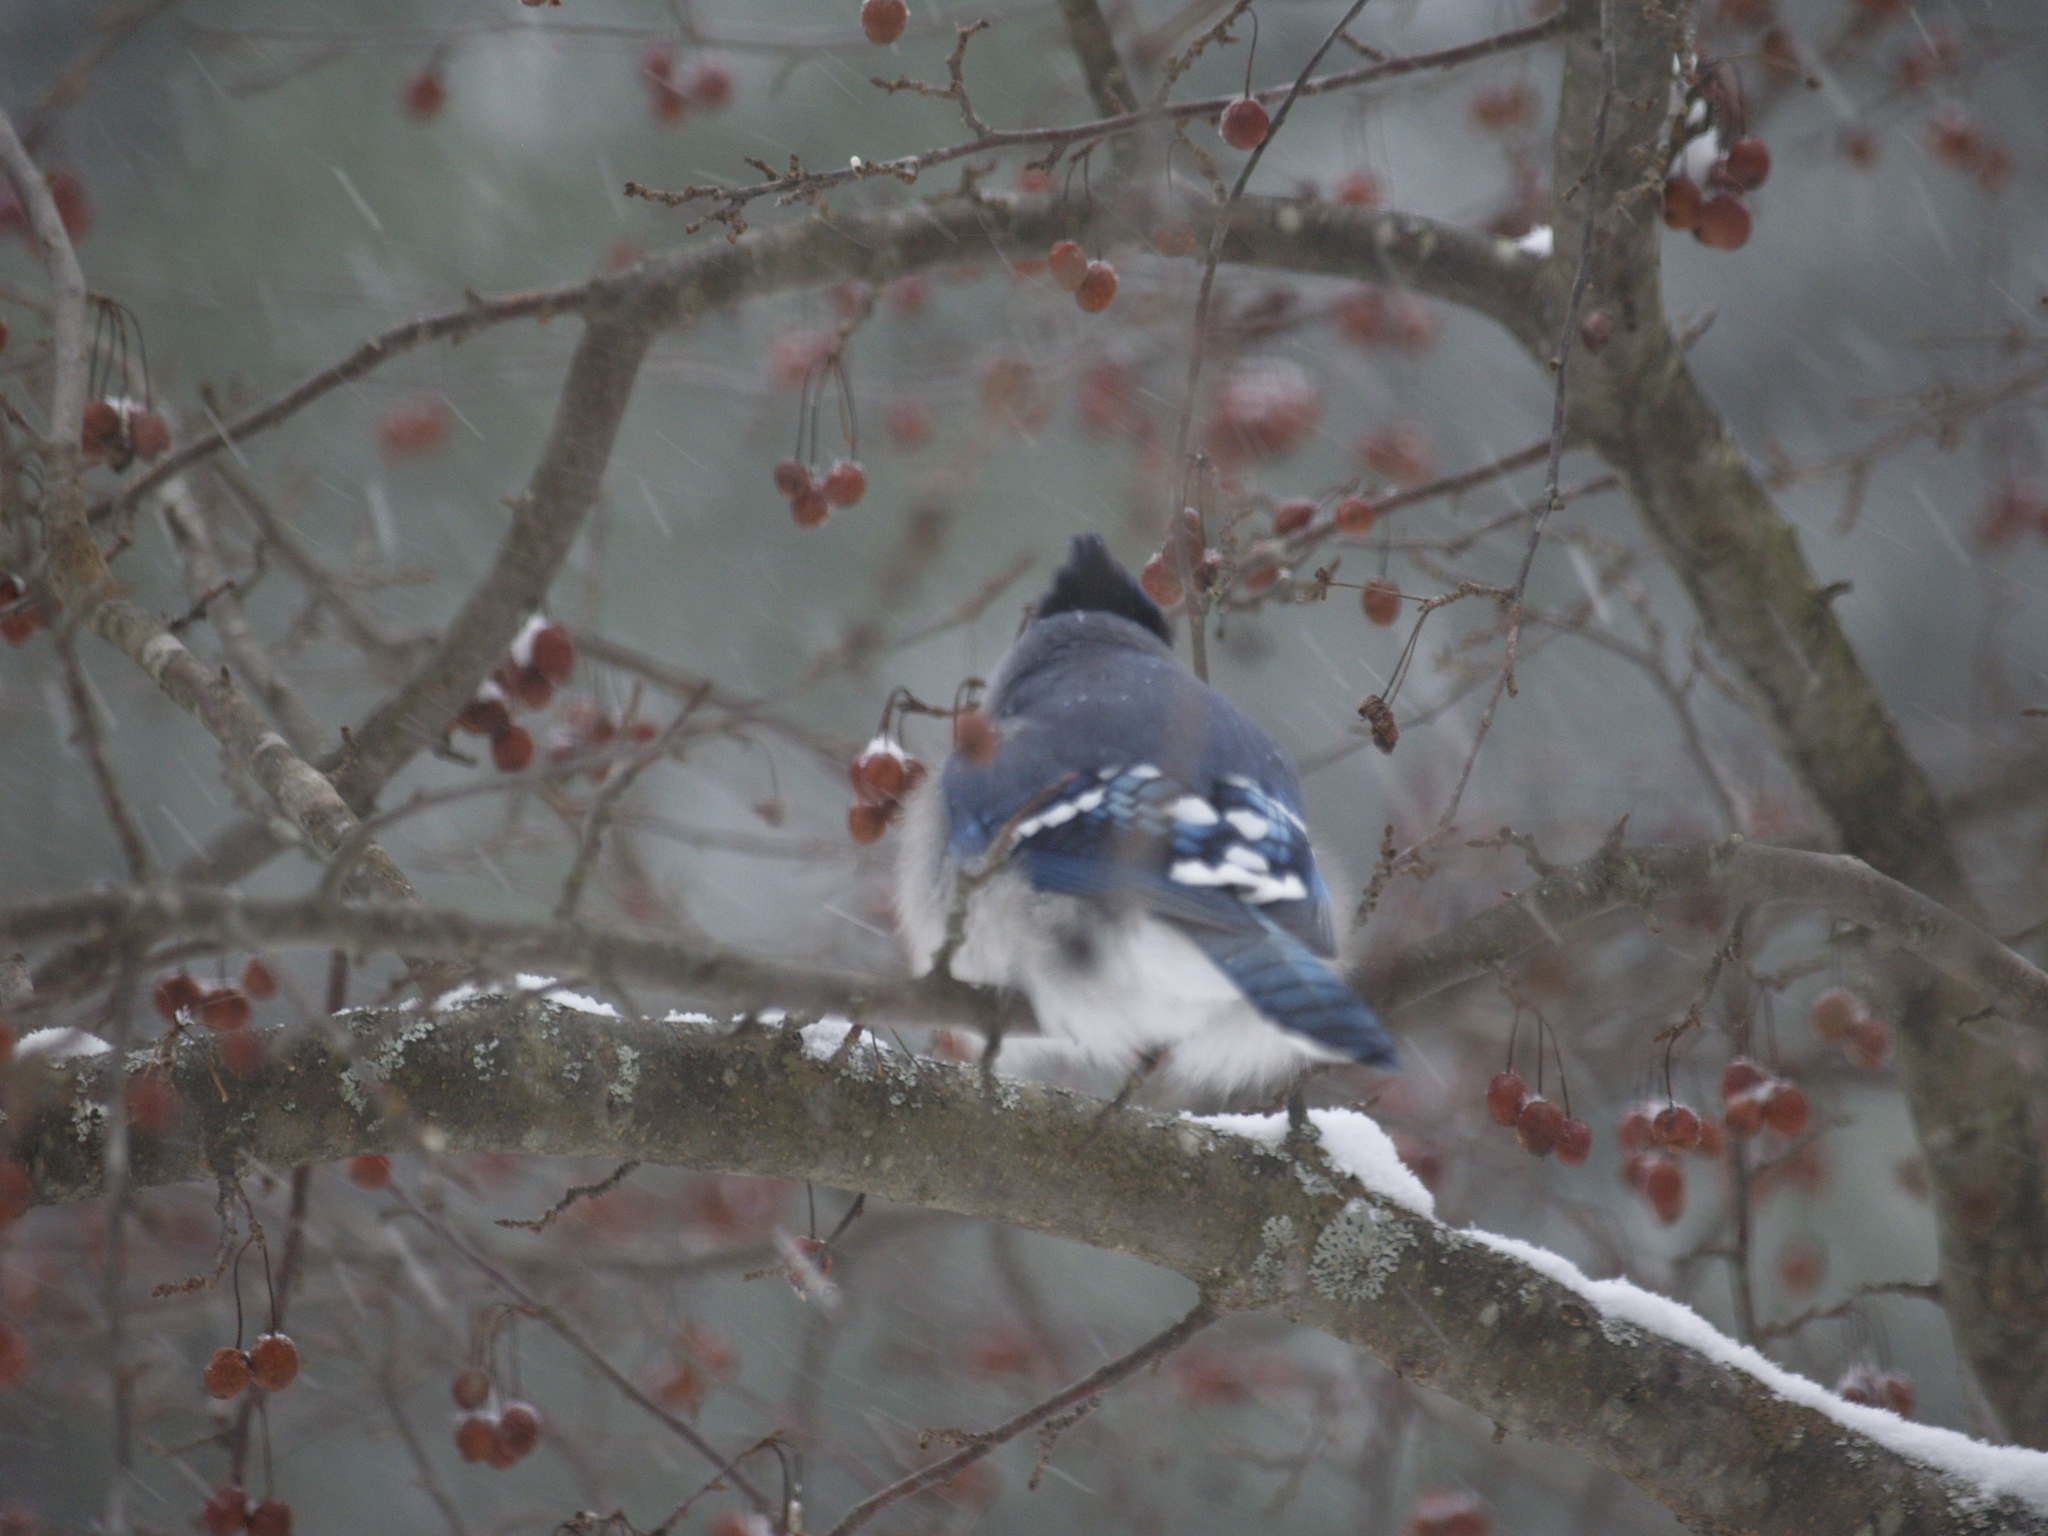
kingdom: Animalia
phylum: Chordata
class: Aves
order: Passeriformes
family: Corvidae
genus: Cyanocitta
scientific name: Cyanocitta cristata
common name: Blue jay
